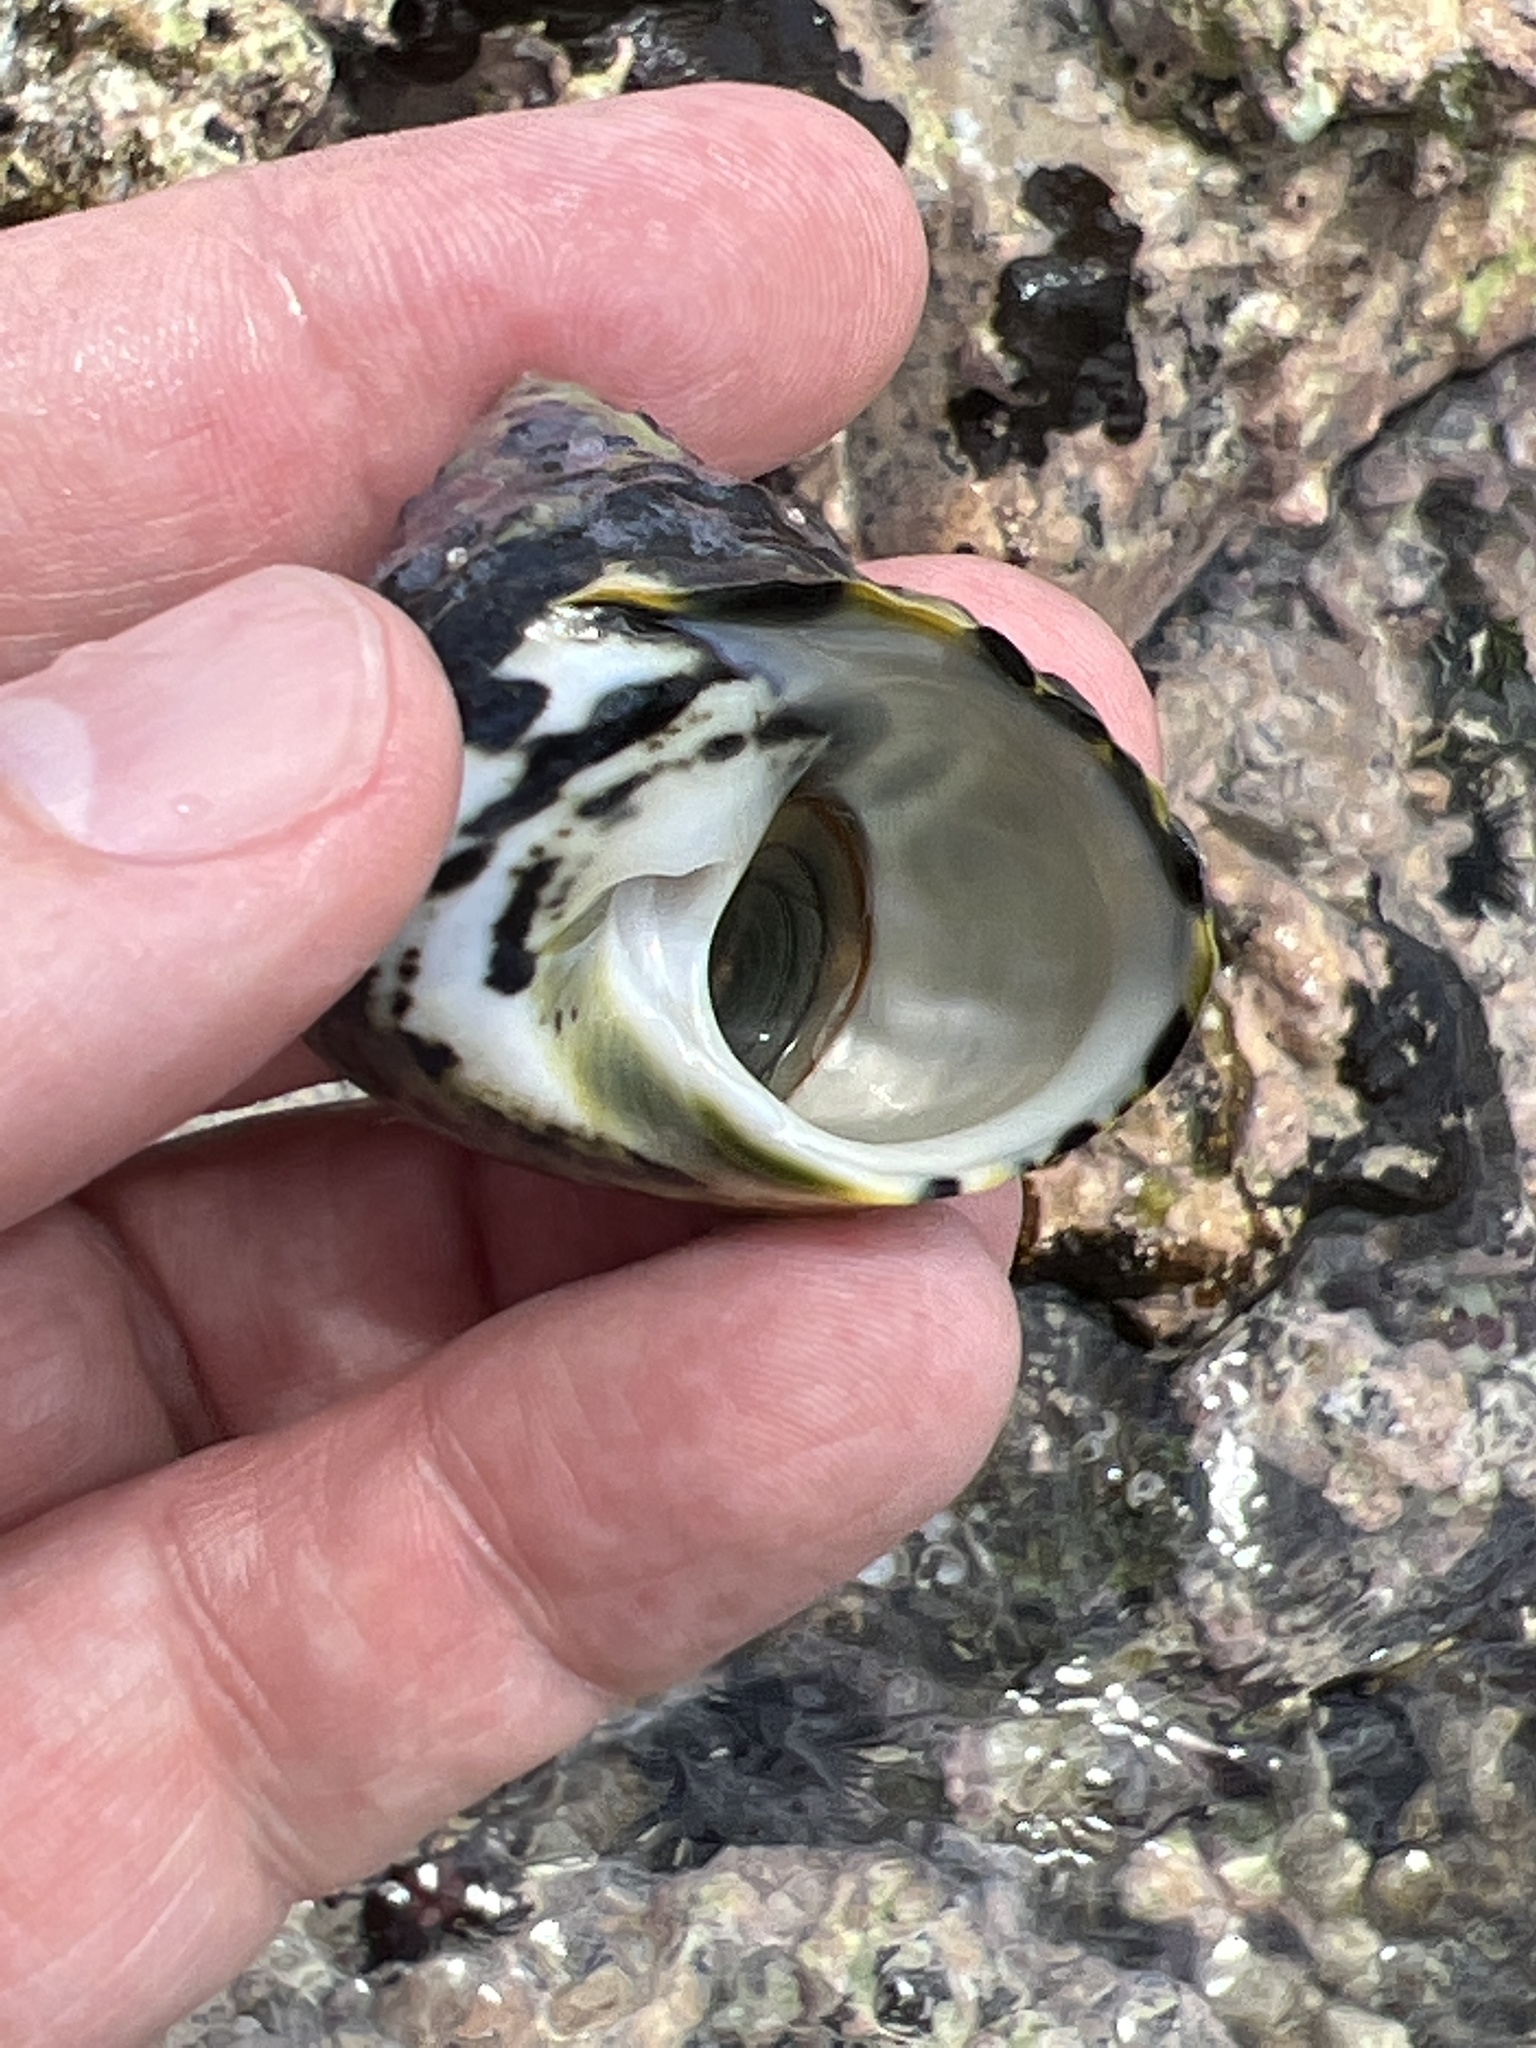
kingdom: Animalia
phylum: Mollusca
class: Gastropoda
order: Trochida
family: Tegulidae
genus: Cittarium
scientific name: Cittarium pica
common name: West indian topshell
